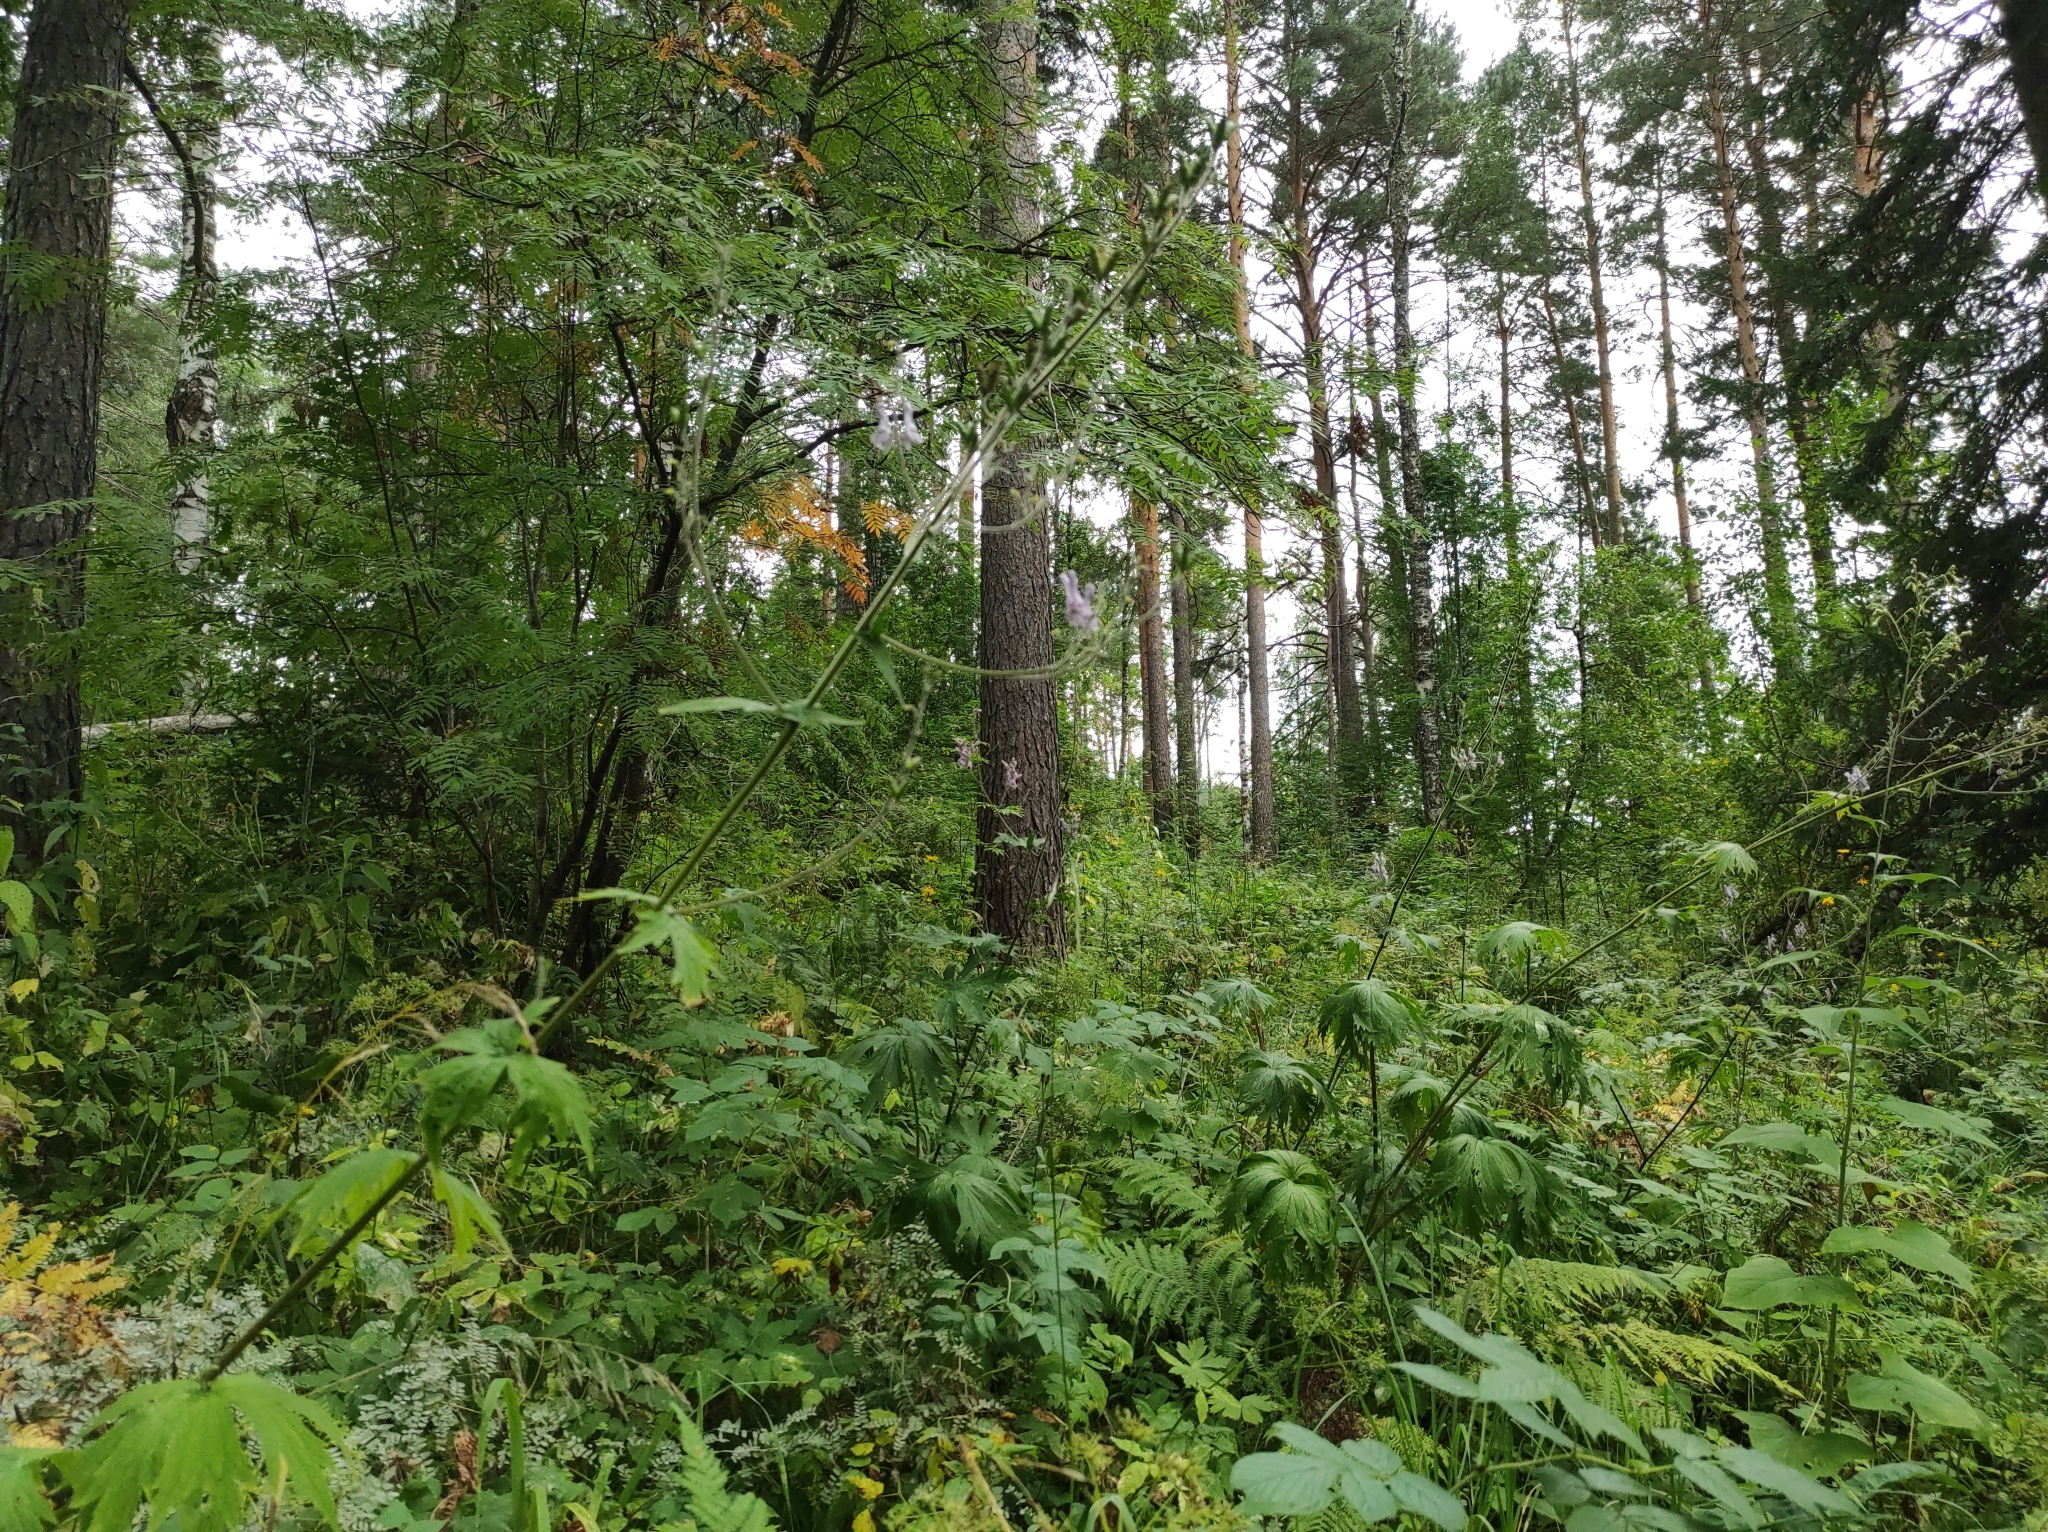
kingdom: Plantae
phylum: Tracheophyta
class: Magnoliopsida
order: Ranunculales
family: Ranunculaceae
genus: Aconitum
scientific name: Aconitum septentrionale
